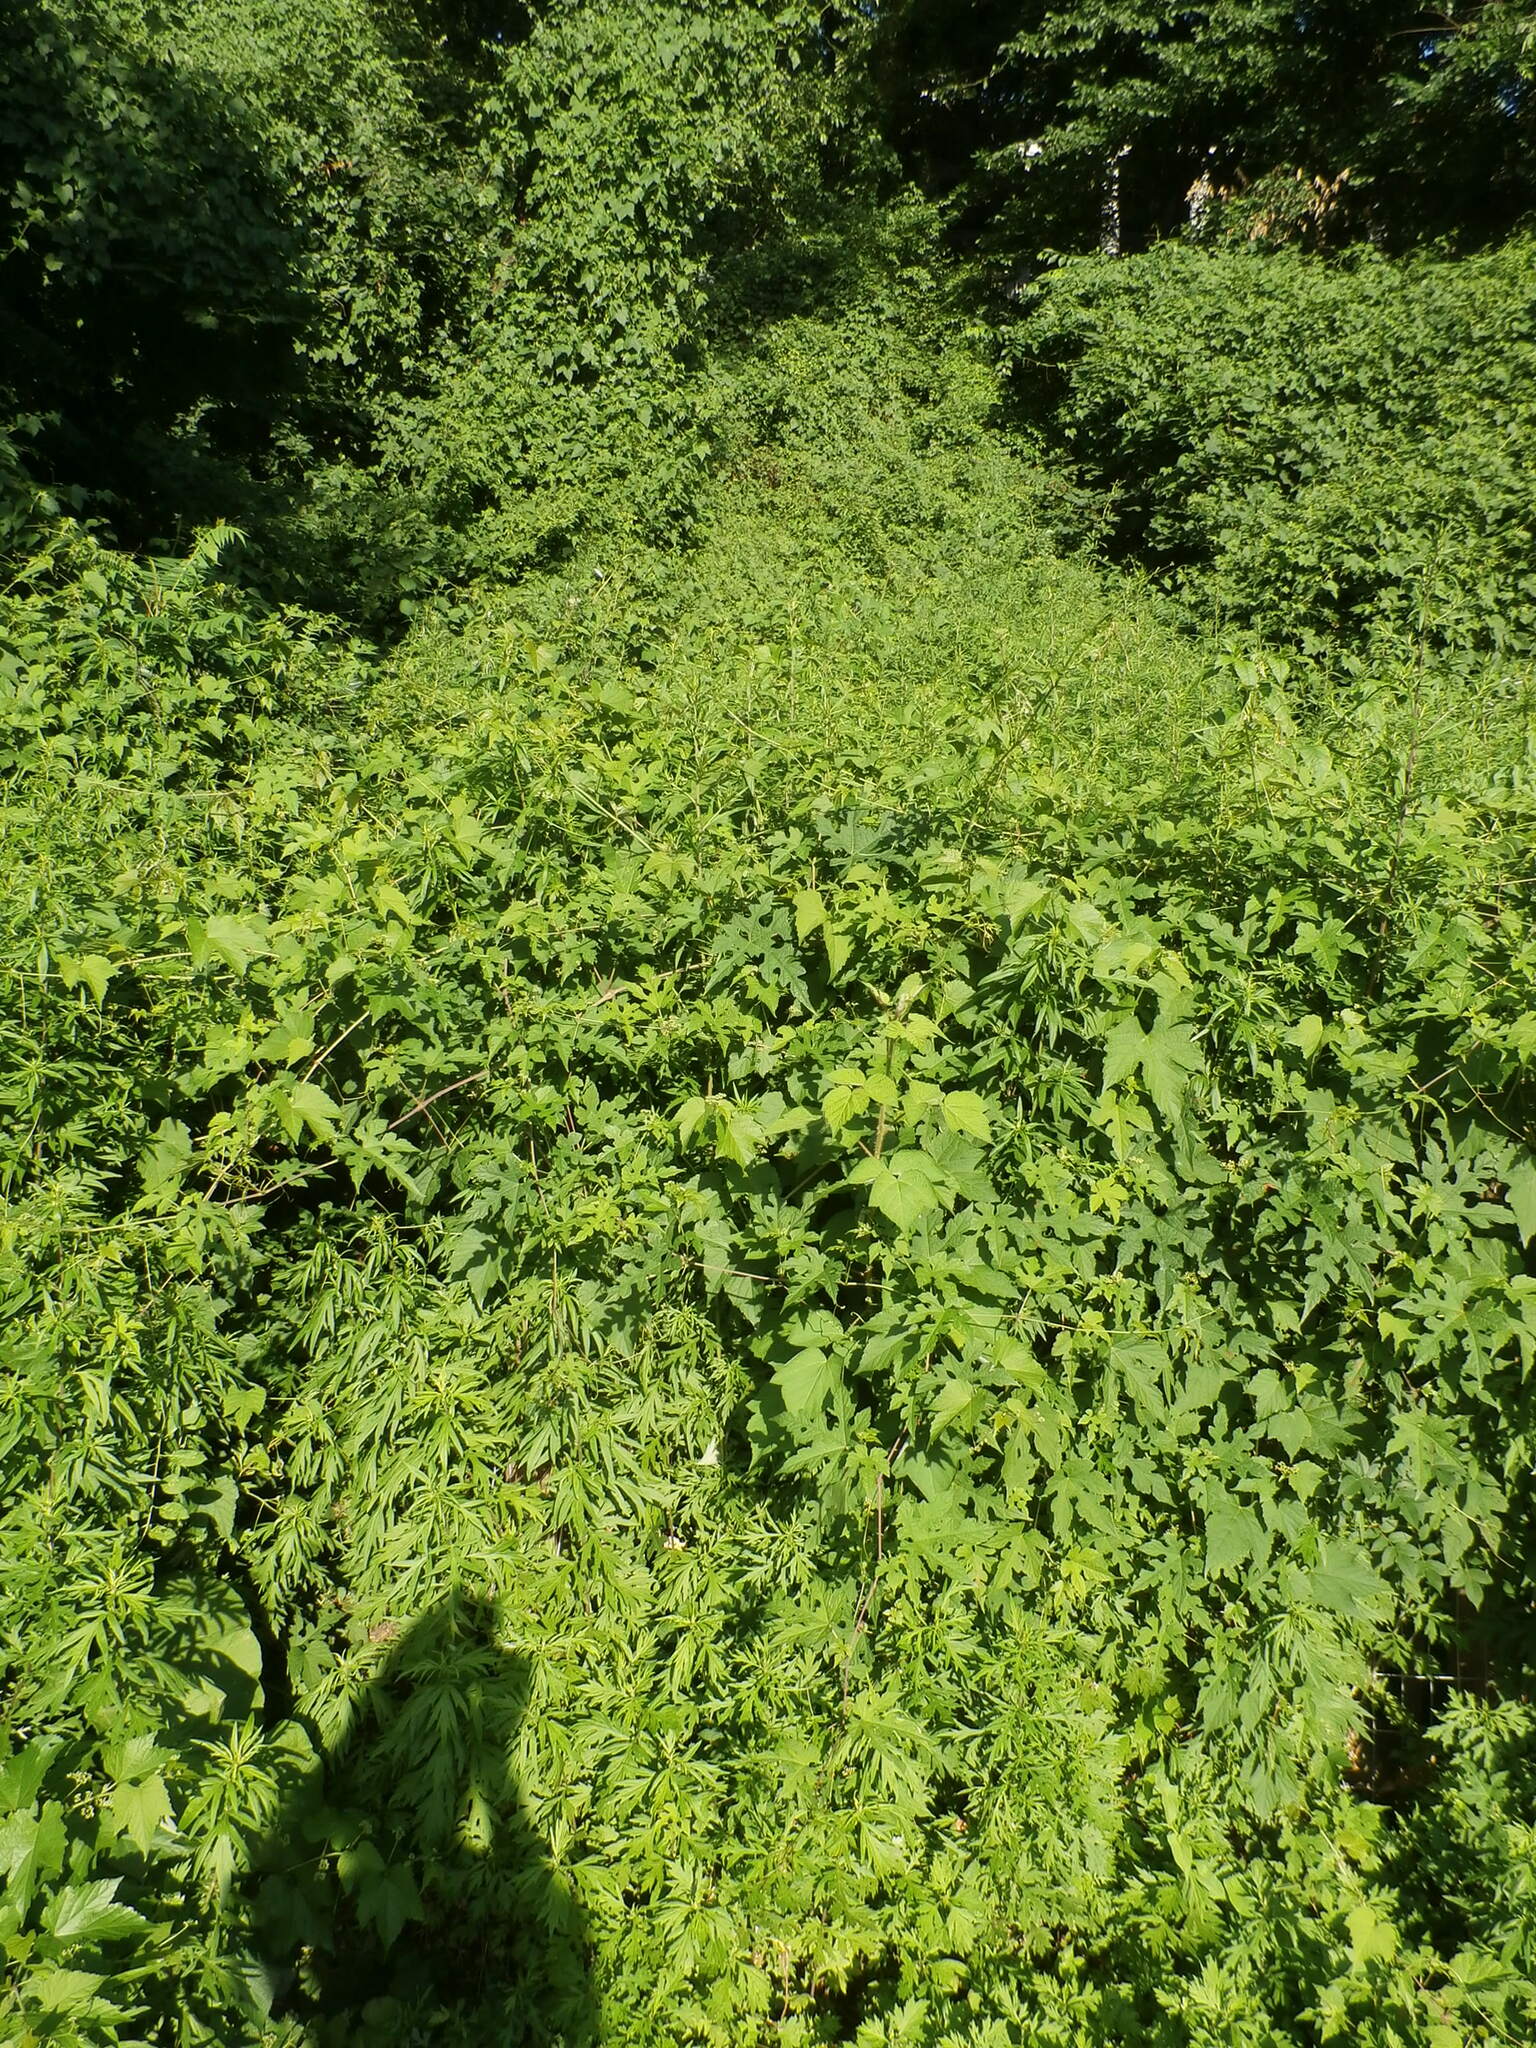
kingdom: Plantae
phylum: Tracheophyta
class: Magnoliopsida
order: Vitales
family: Vitaceae
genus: Ampelopsis
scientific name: Ampelopsis glandulosa
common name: Amur peppervine
